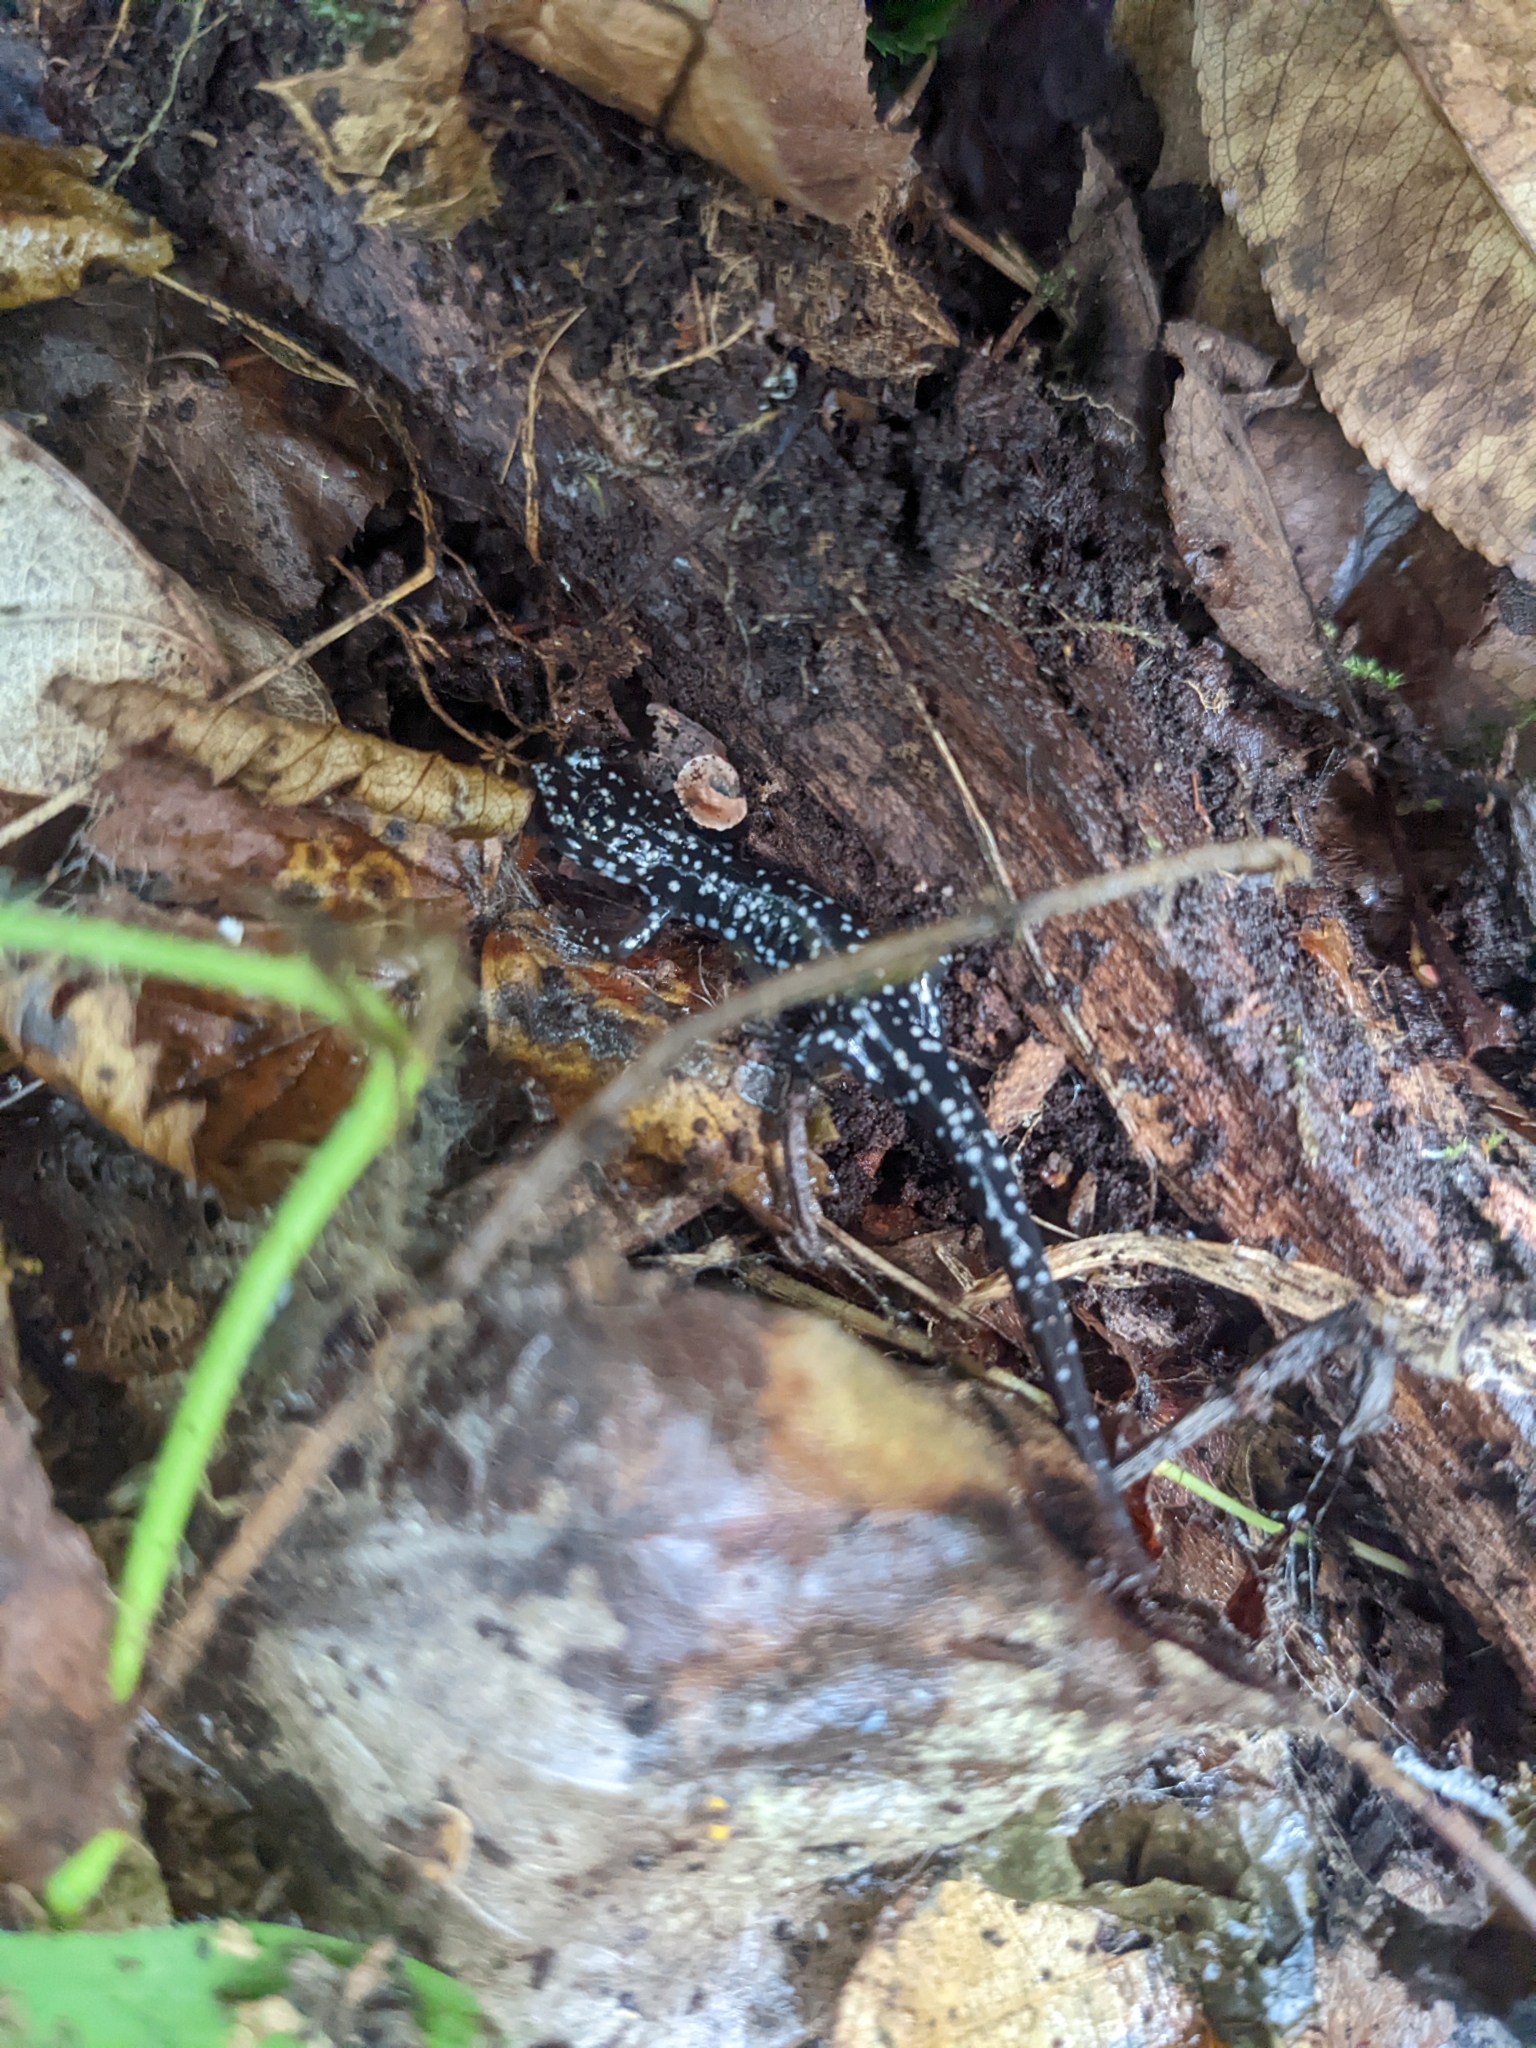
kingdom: Animalia
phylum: Chordata
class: Amphibia
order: Caudata
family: Plethodontidae
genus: Plethodon
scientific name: Plethodon glutinosus
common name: Northern slimy salamander
